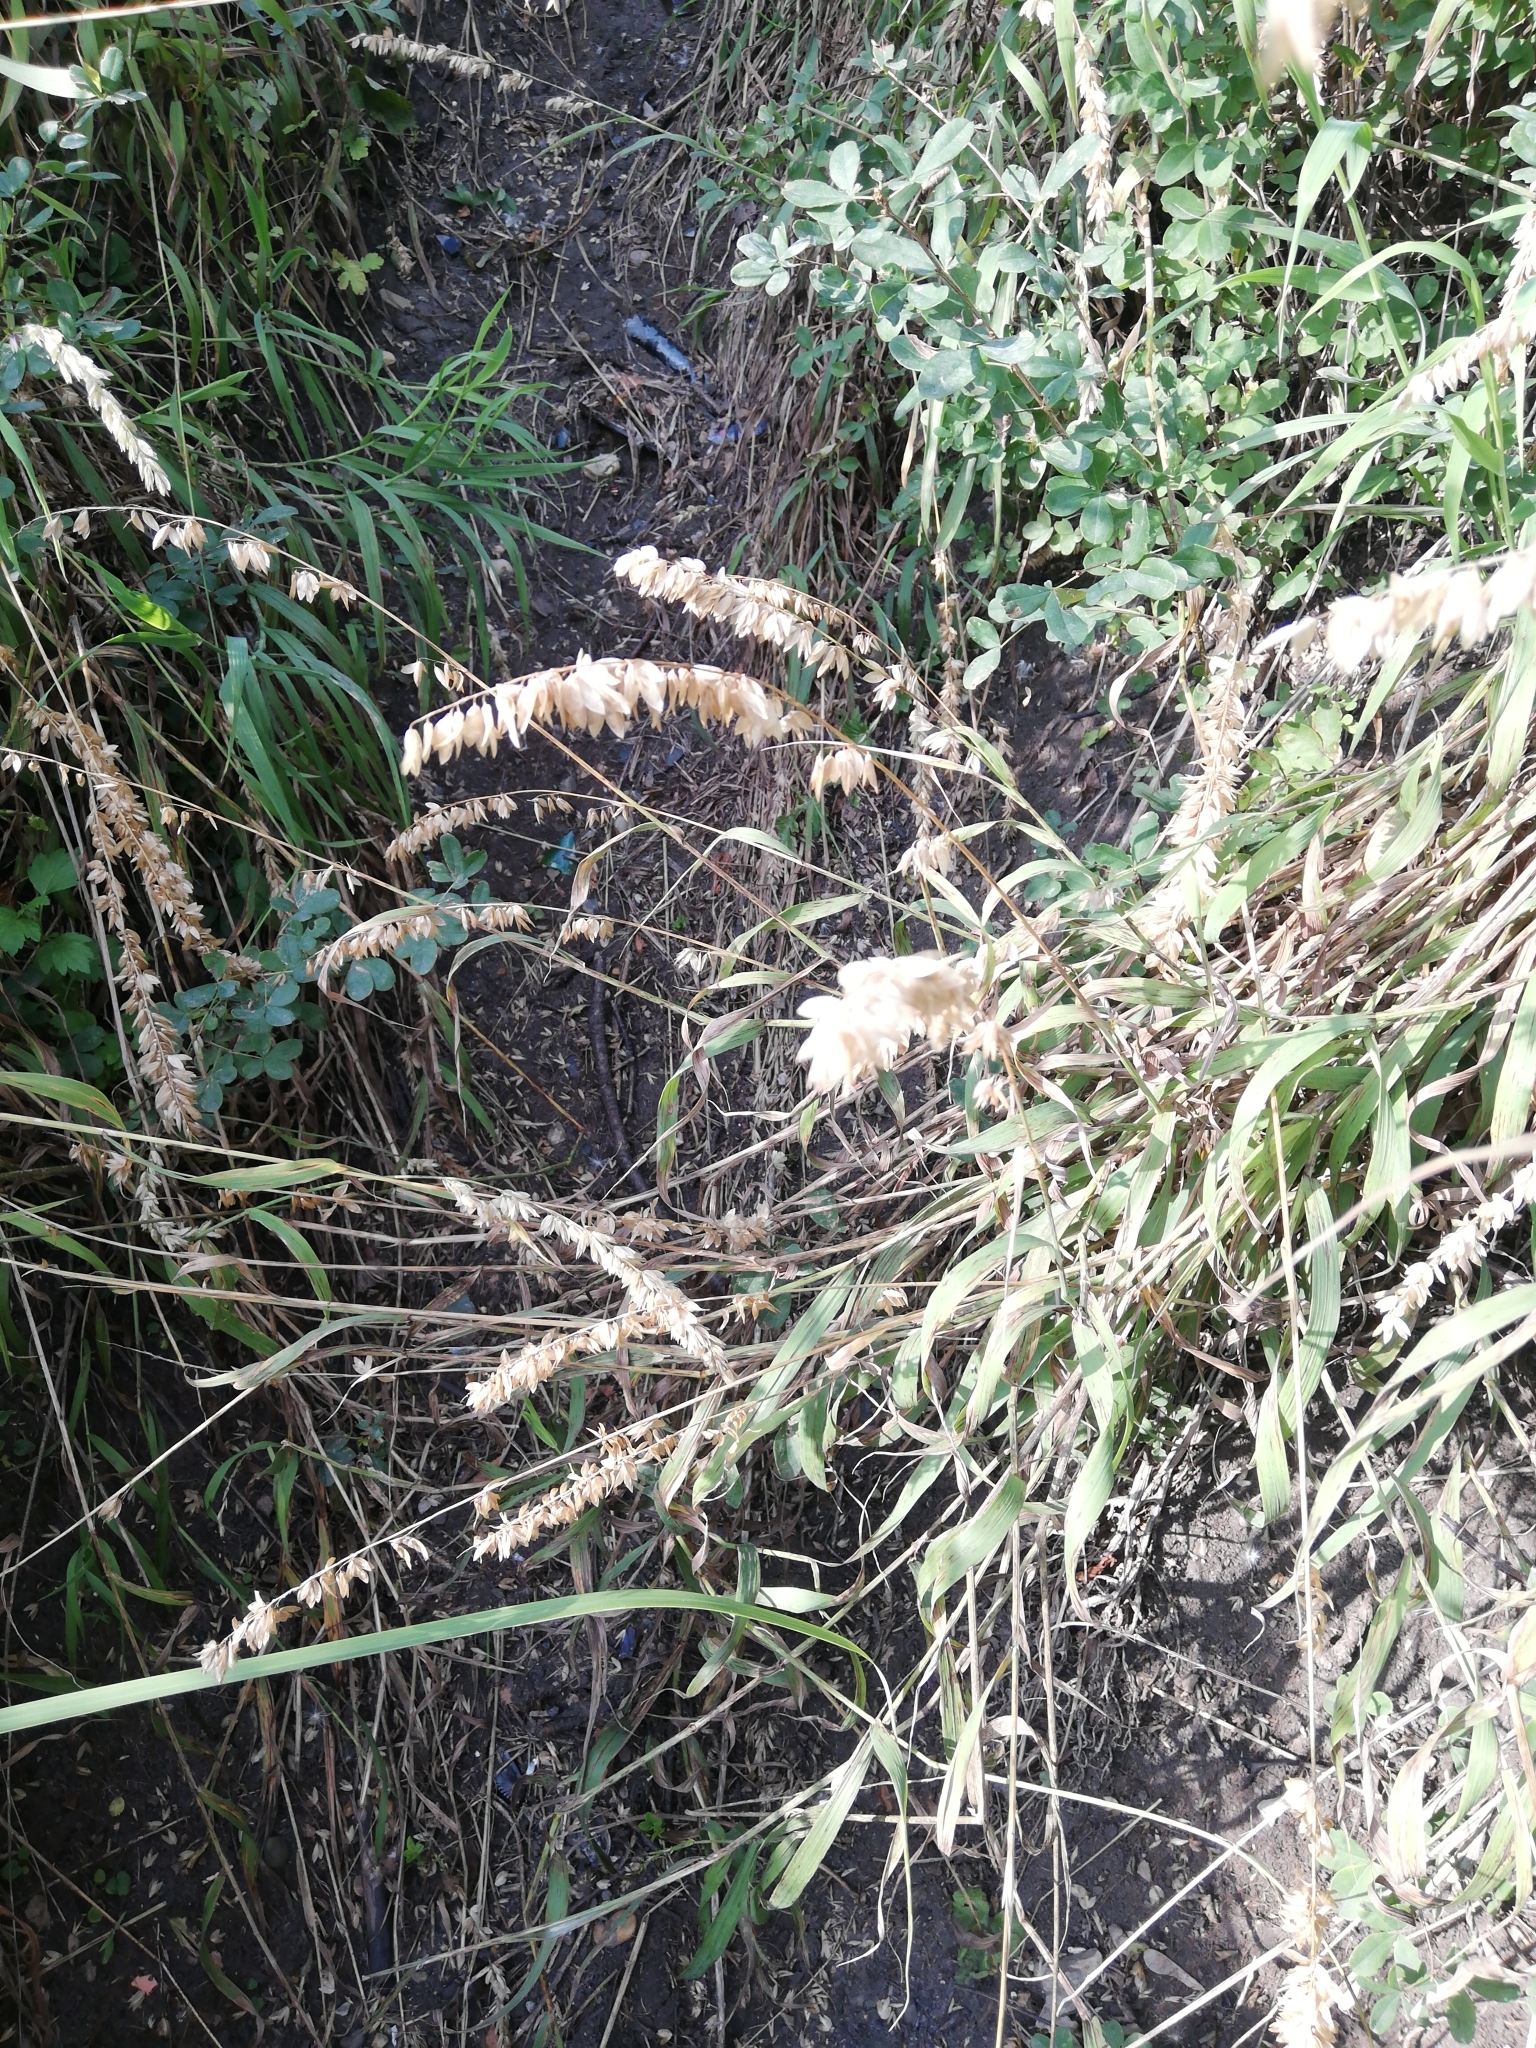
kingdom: Plantae
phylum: Tracheophyta
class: Liliopsida
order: Poales
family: Poaceae
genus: Melica
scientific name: Melica altissima
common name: Siberian melicgrass
